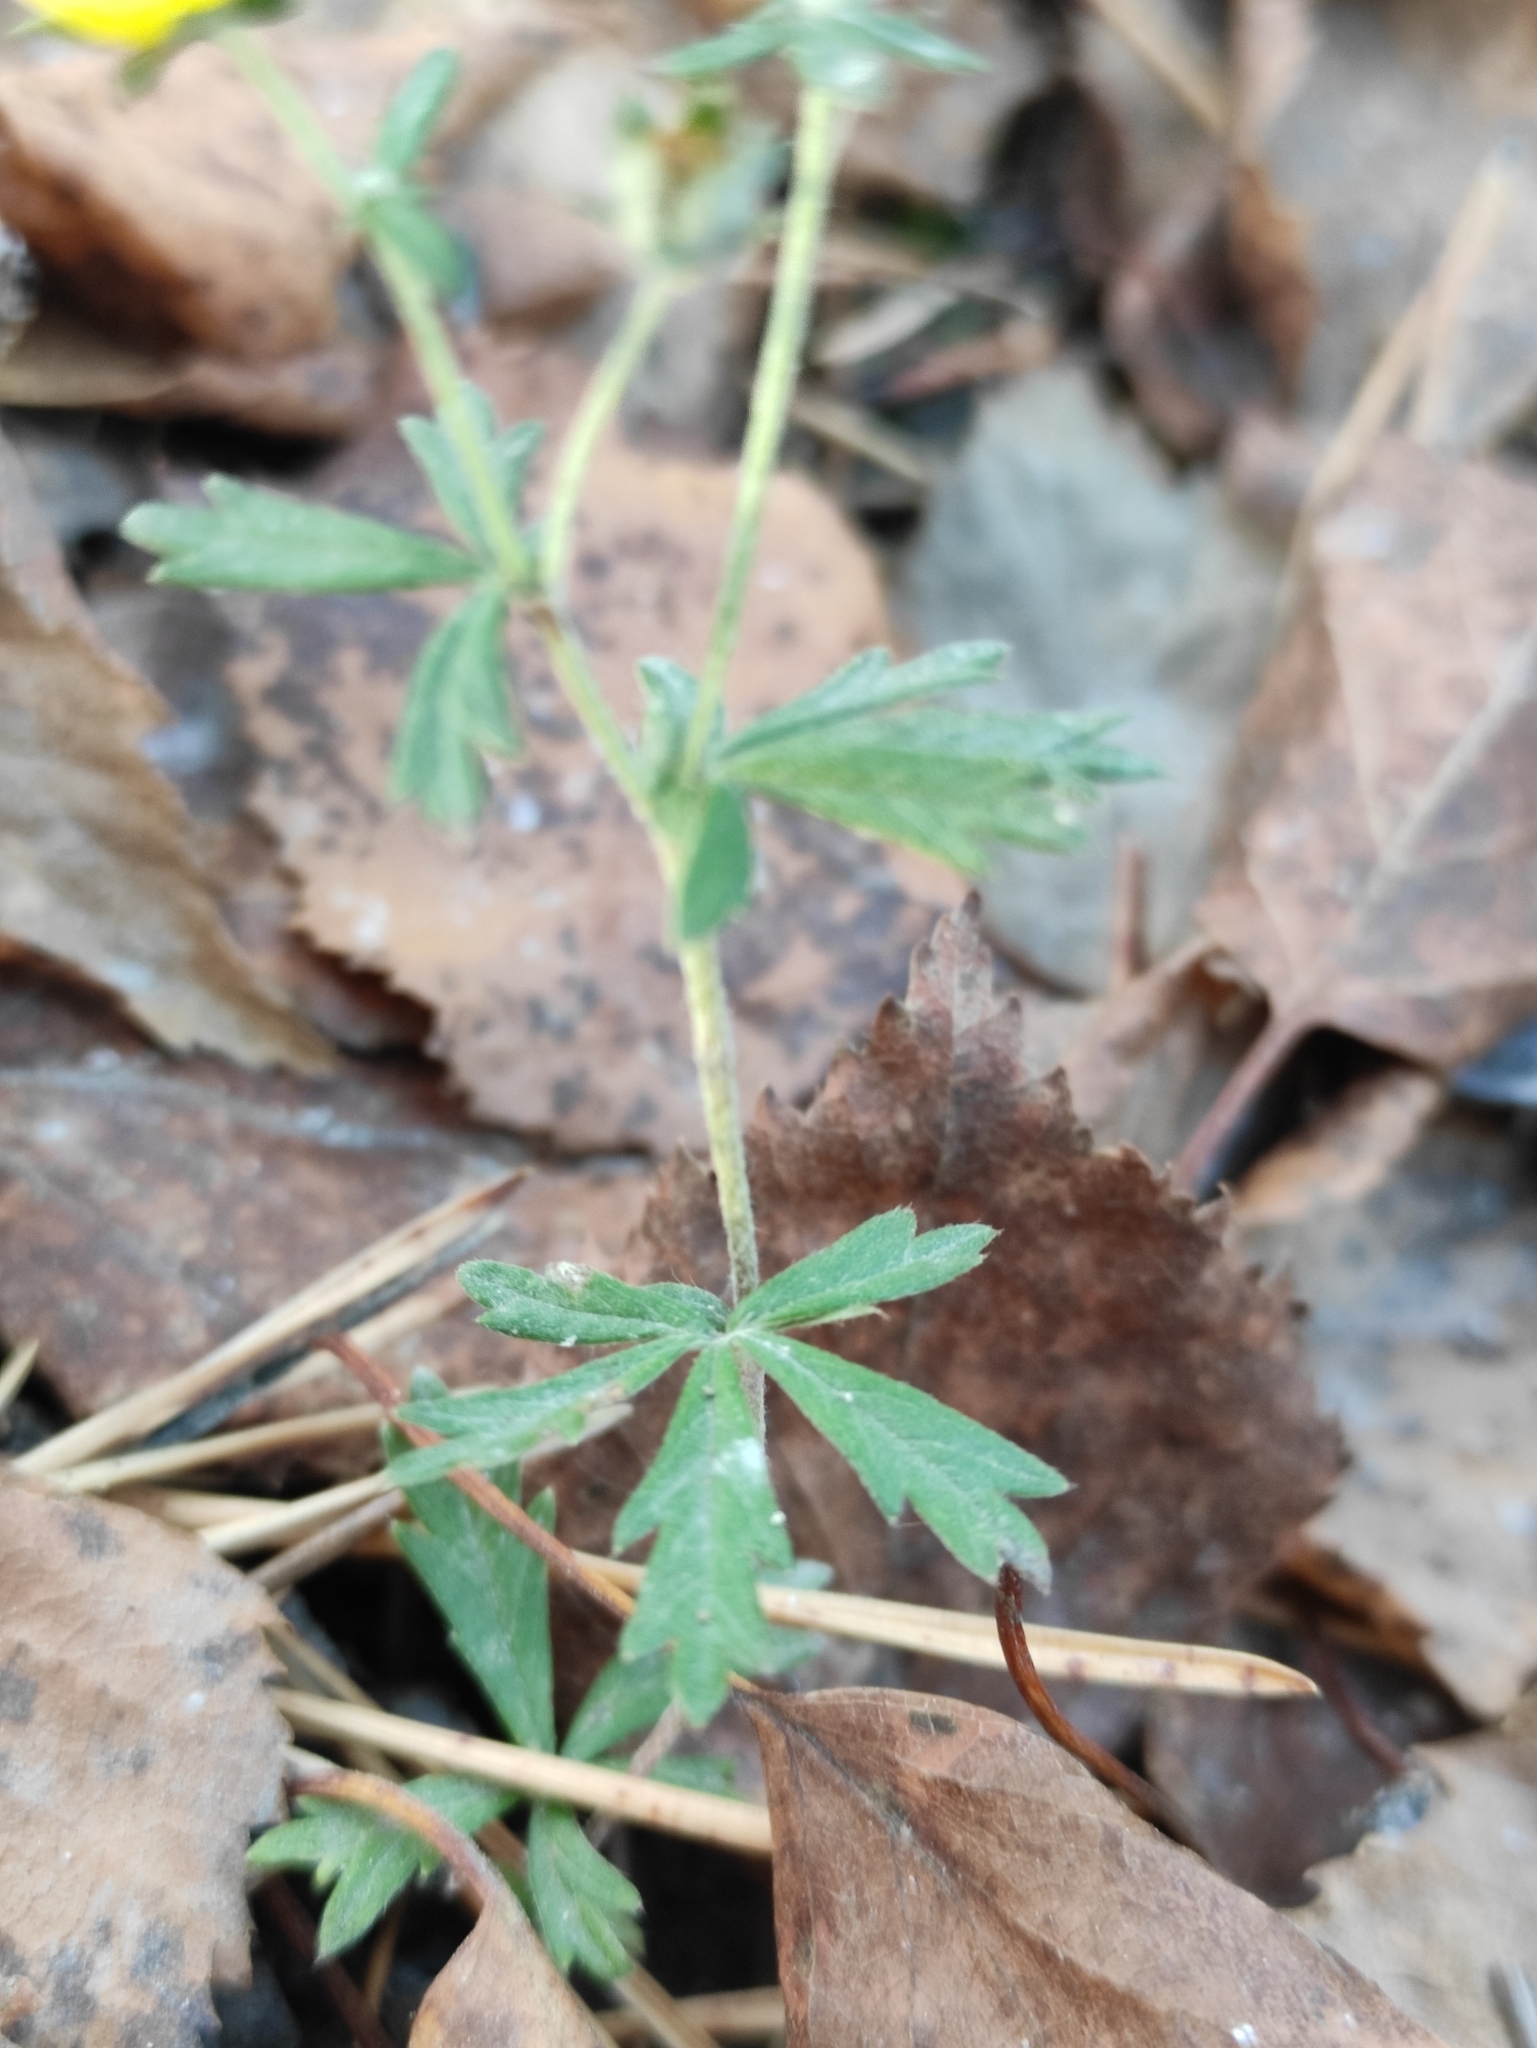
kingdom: Plantae
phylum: Tracheophyta
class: Magnoliopsida
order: Rosales
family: Rosaceae
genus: Potentilla
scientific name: Potentilla argentea
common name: Hoary cinquefoil
